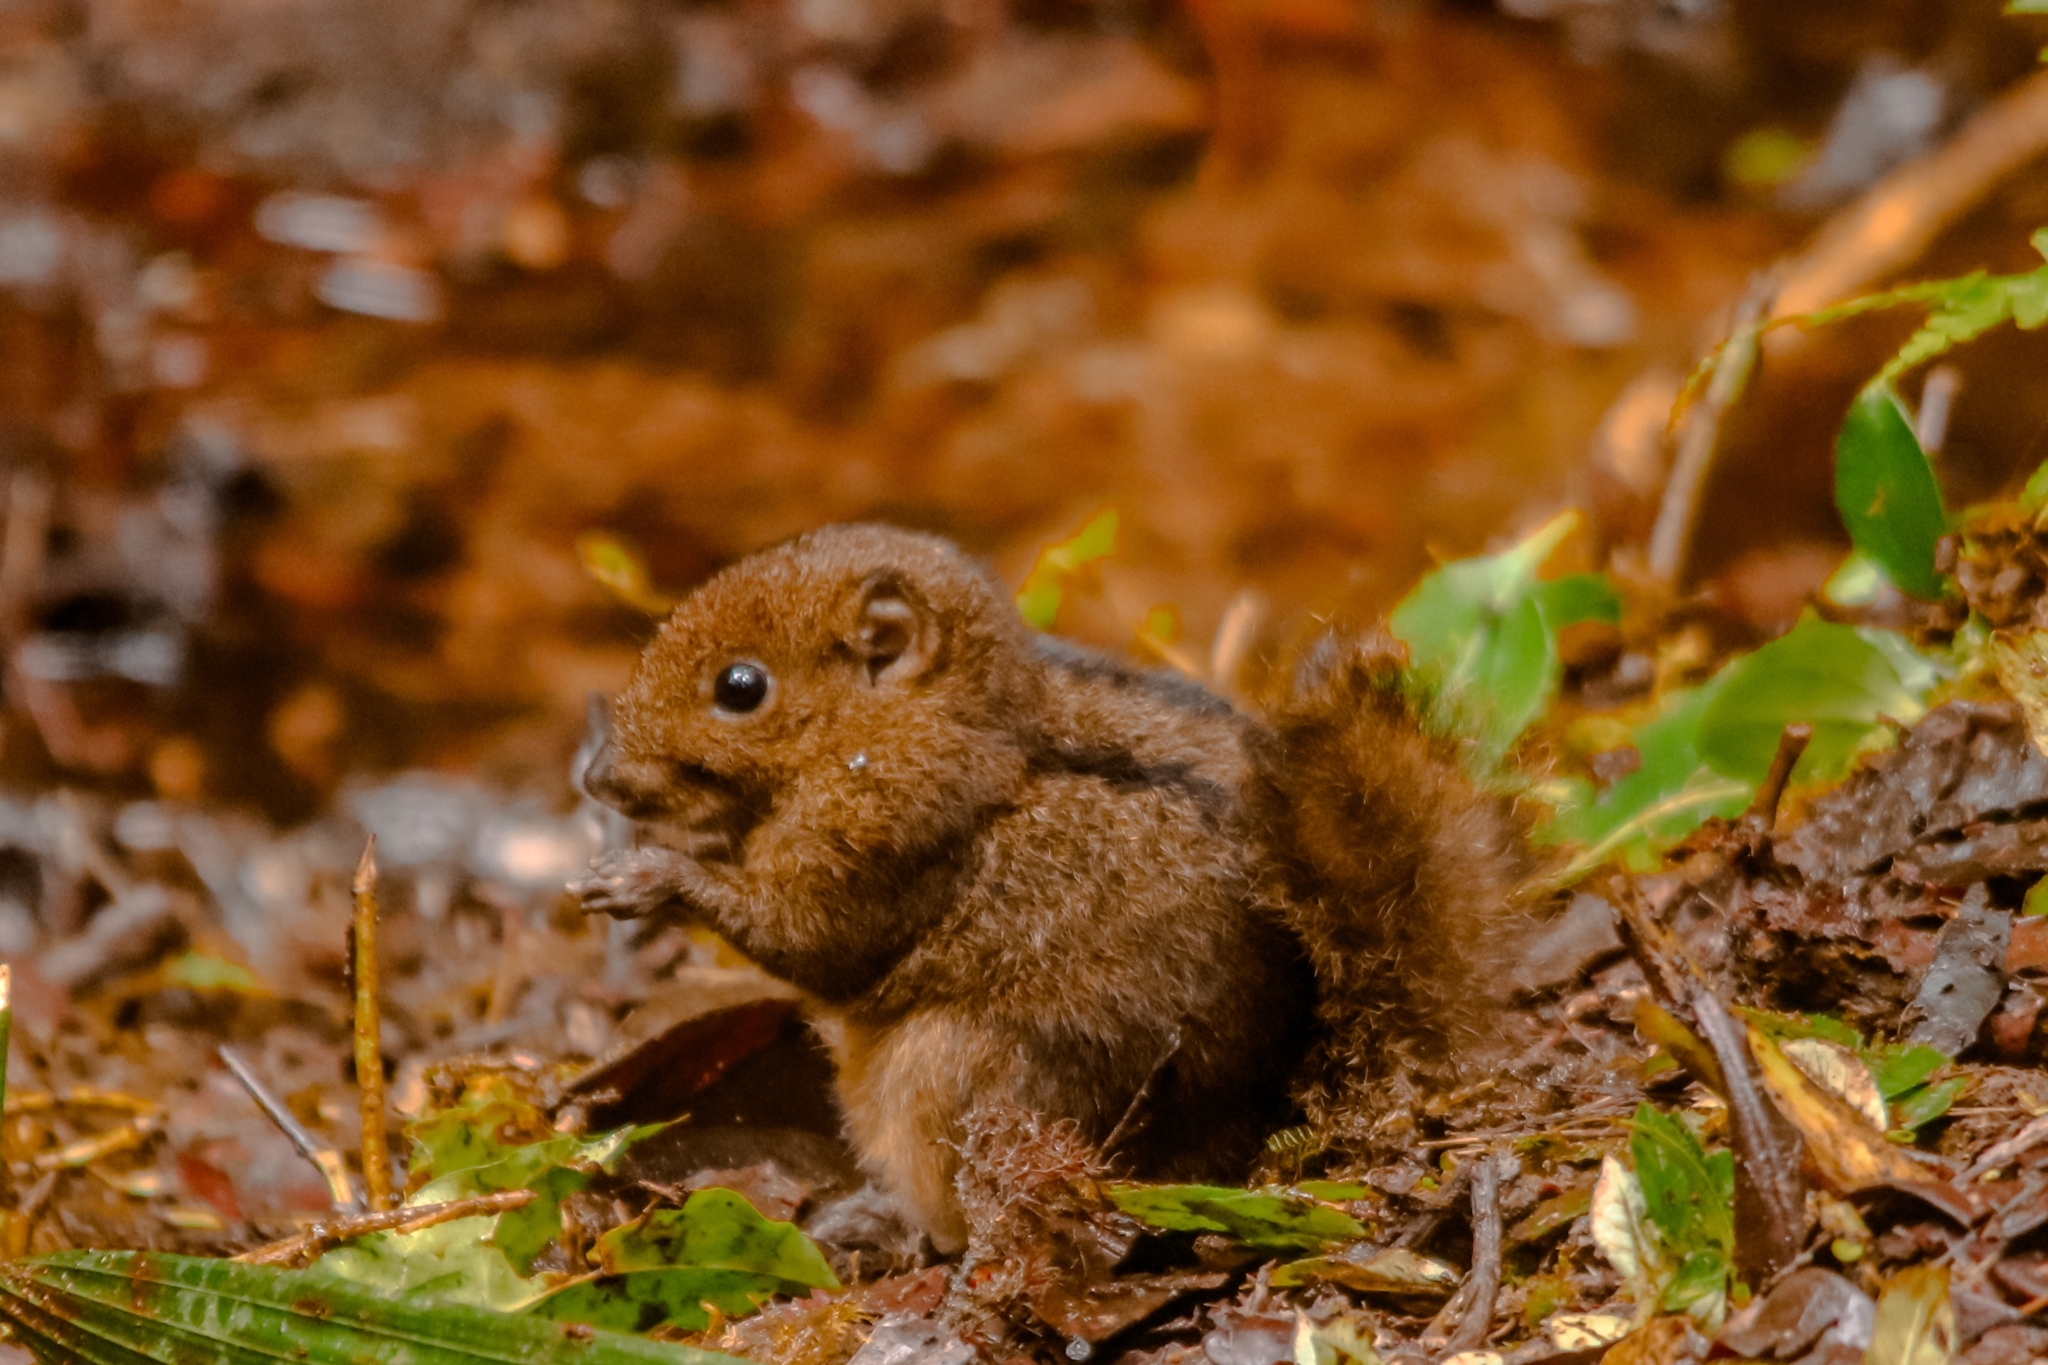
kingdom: Animalia
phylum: Chordata
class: Mammalia
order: Rodentia
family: Sciuridae
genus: Lariscus
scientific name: Lariscus insignis
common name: Three-striped ground squirrel
